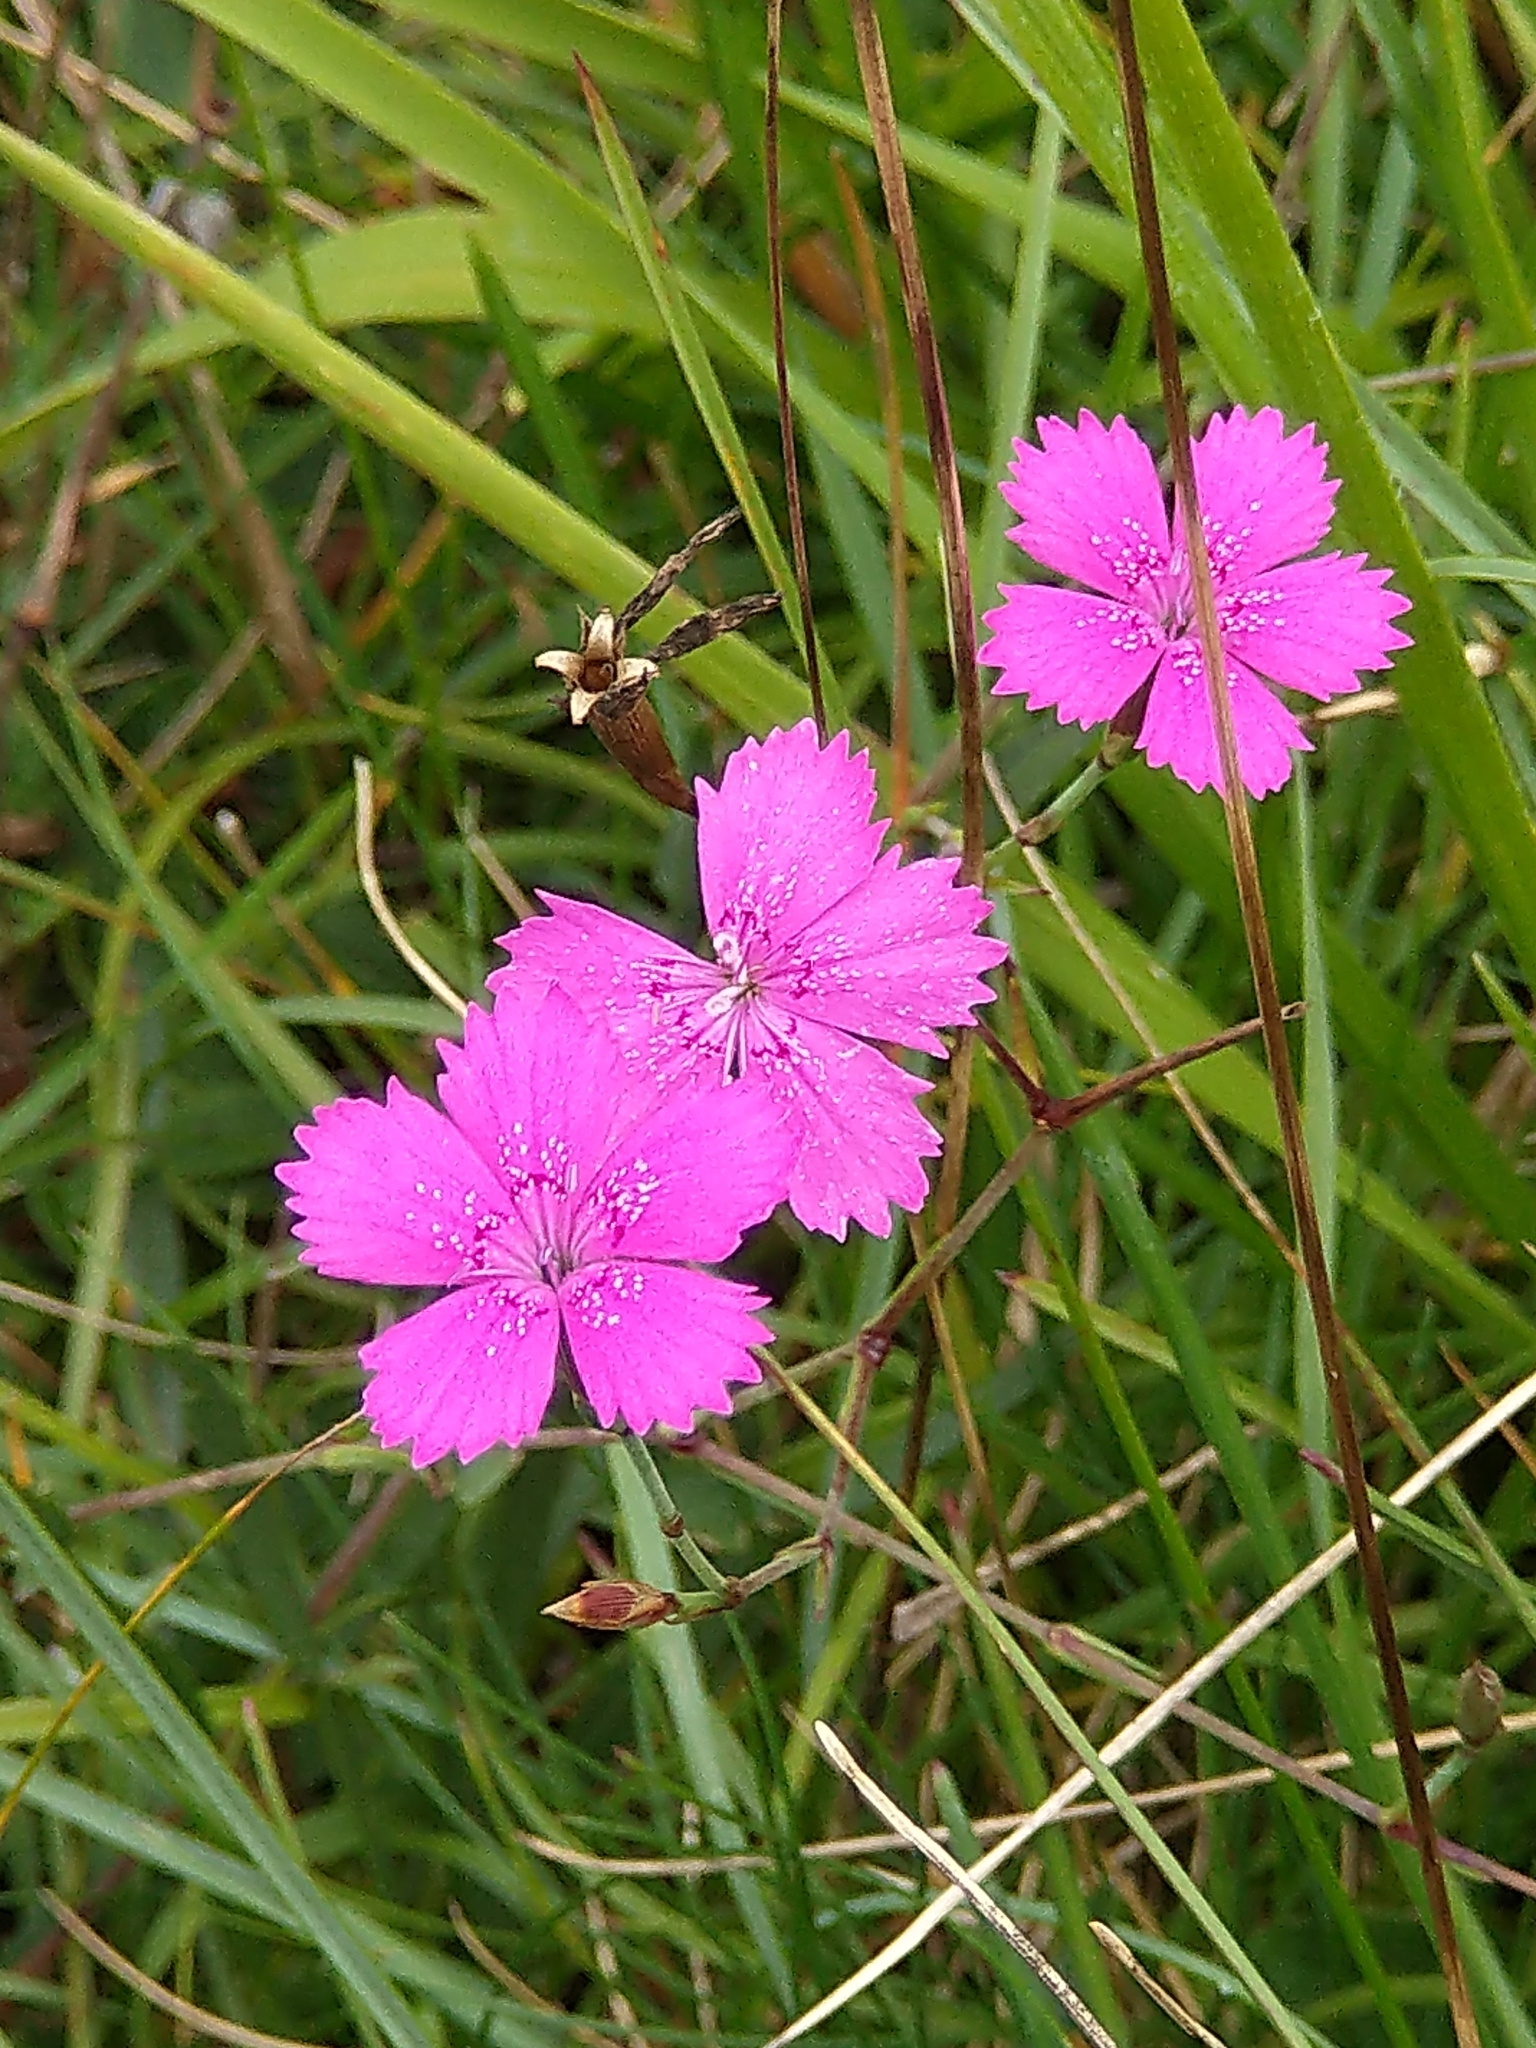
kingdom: Plantae
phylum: Tracheophyta
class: Magnoliopsida
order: Caryophyllales
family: Caryophyllaceae
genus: Dianthus
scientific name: Dianthus deltoides
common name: Maiden pink
